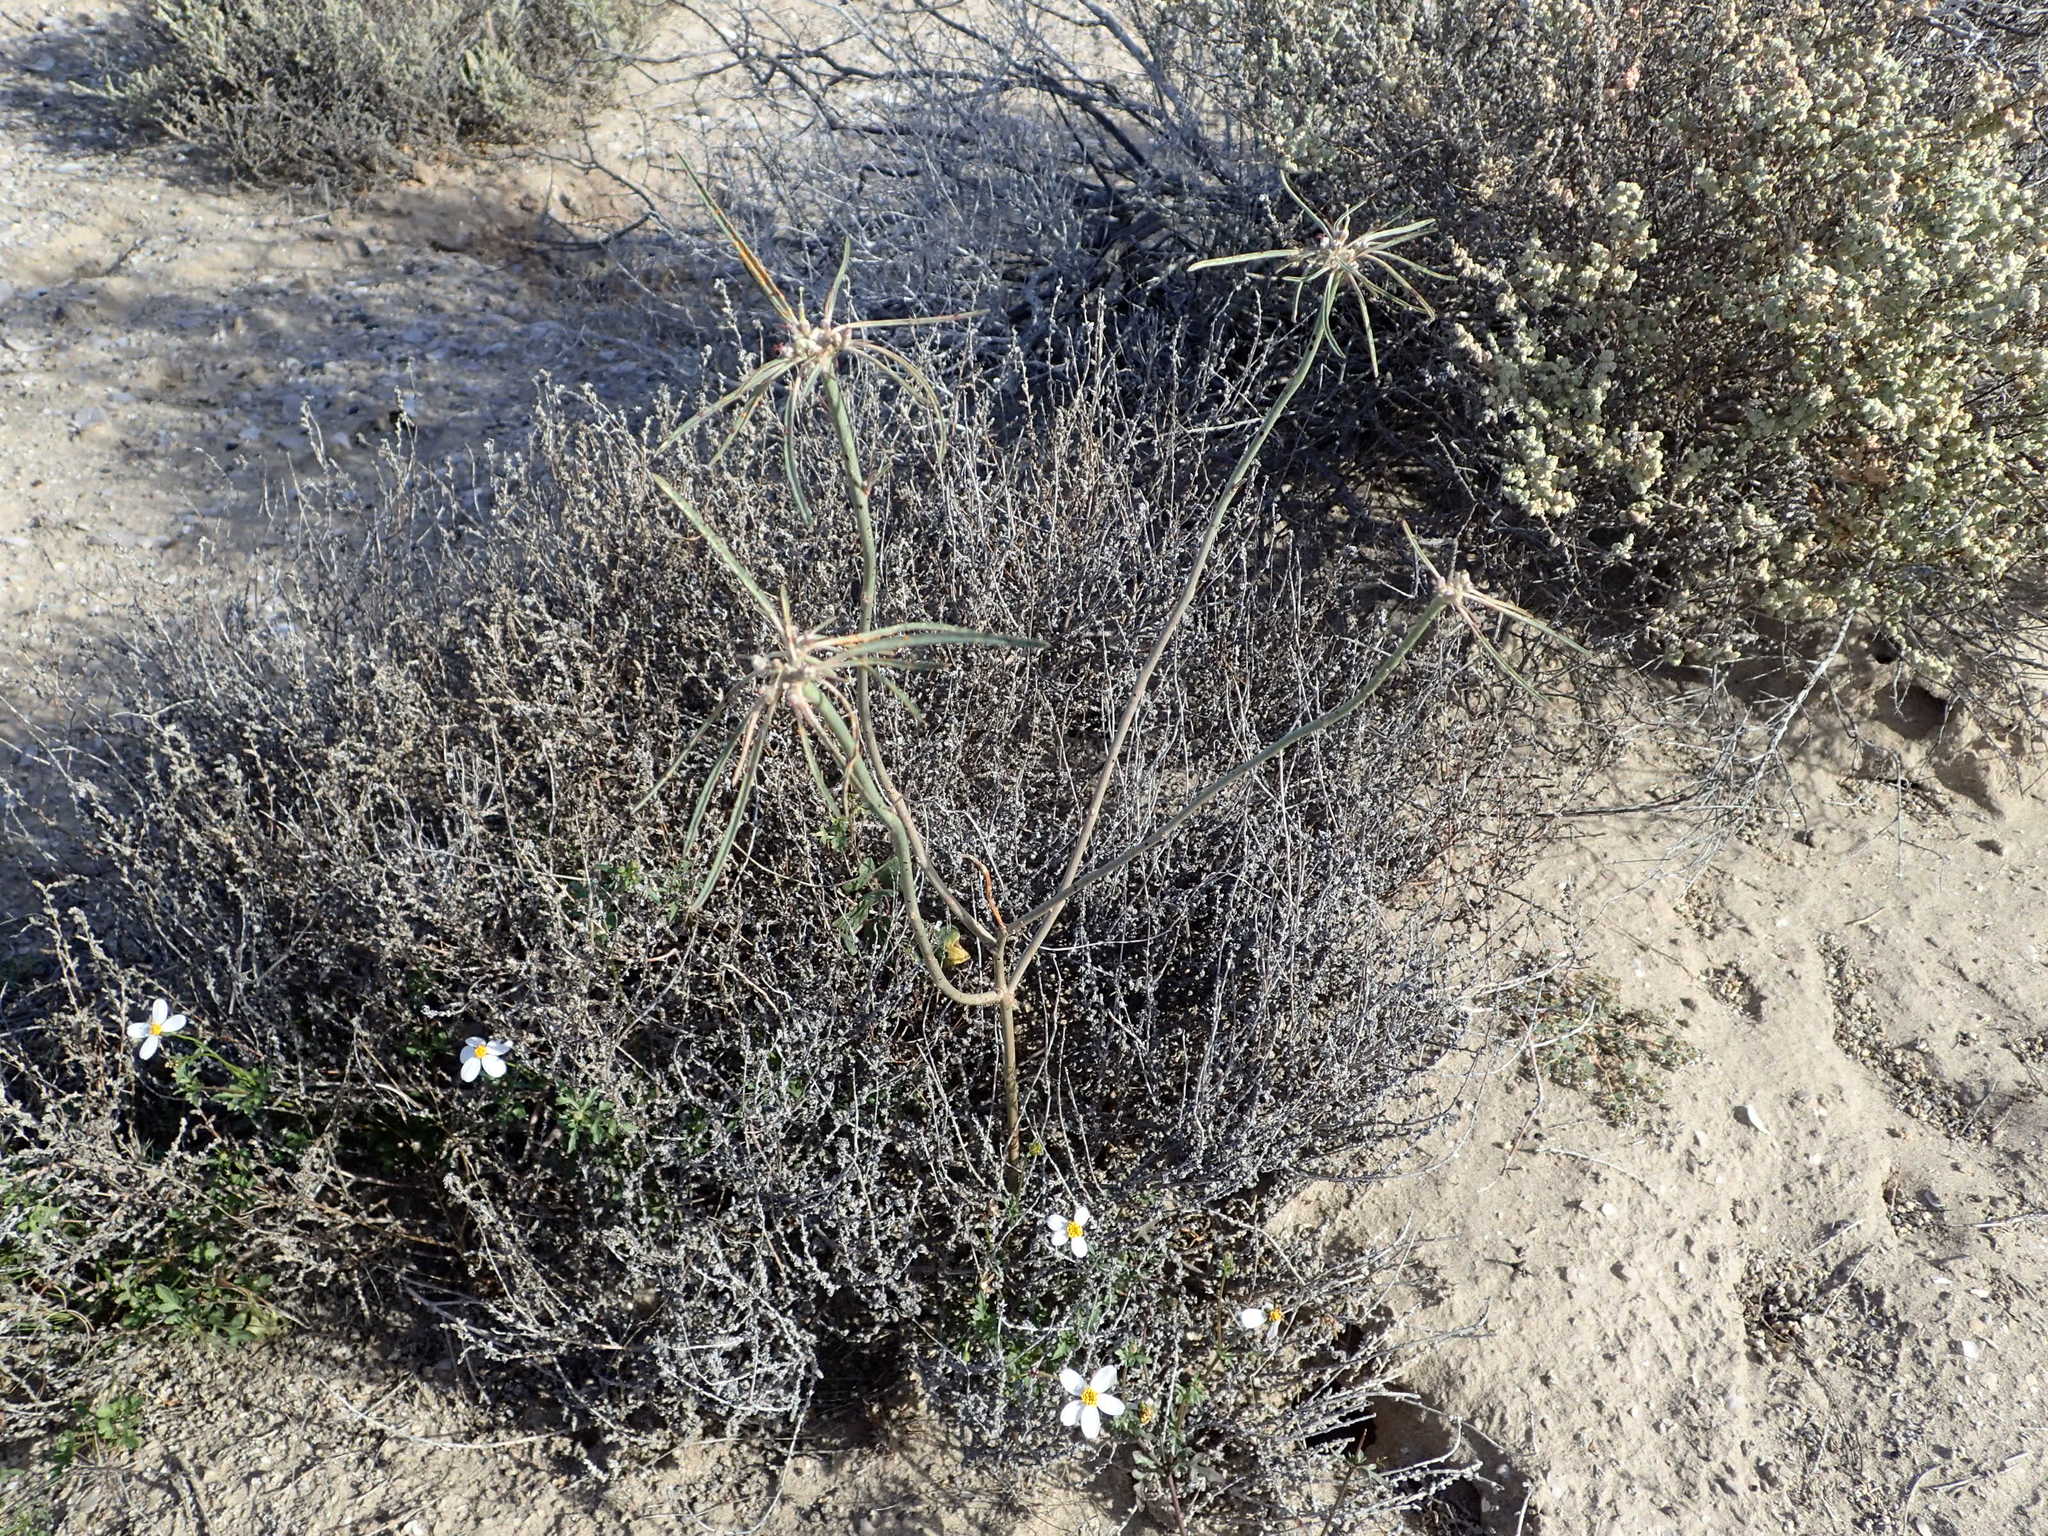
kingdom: Plantae
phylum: Tracheophyta
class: Magnoliopsida
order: Malpighiales
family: Euphorbiaceae
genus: Euphorbia
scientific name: Euphorbia eriantha
